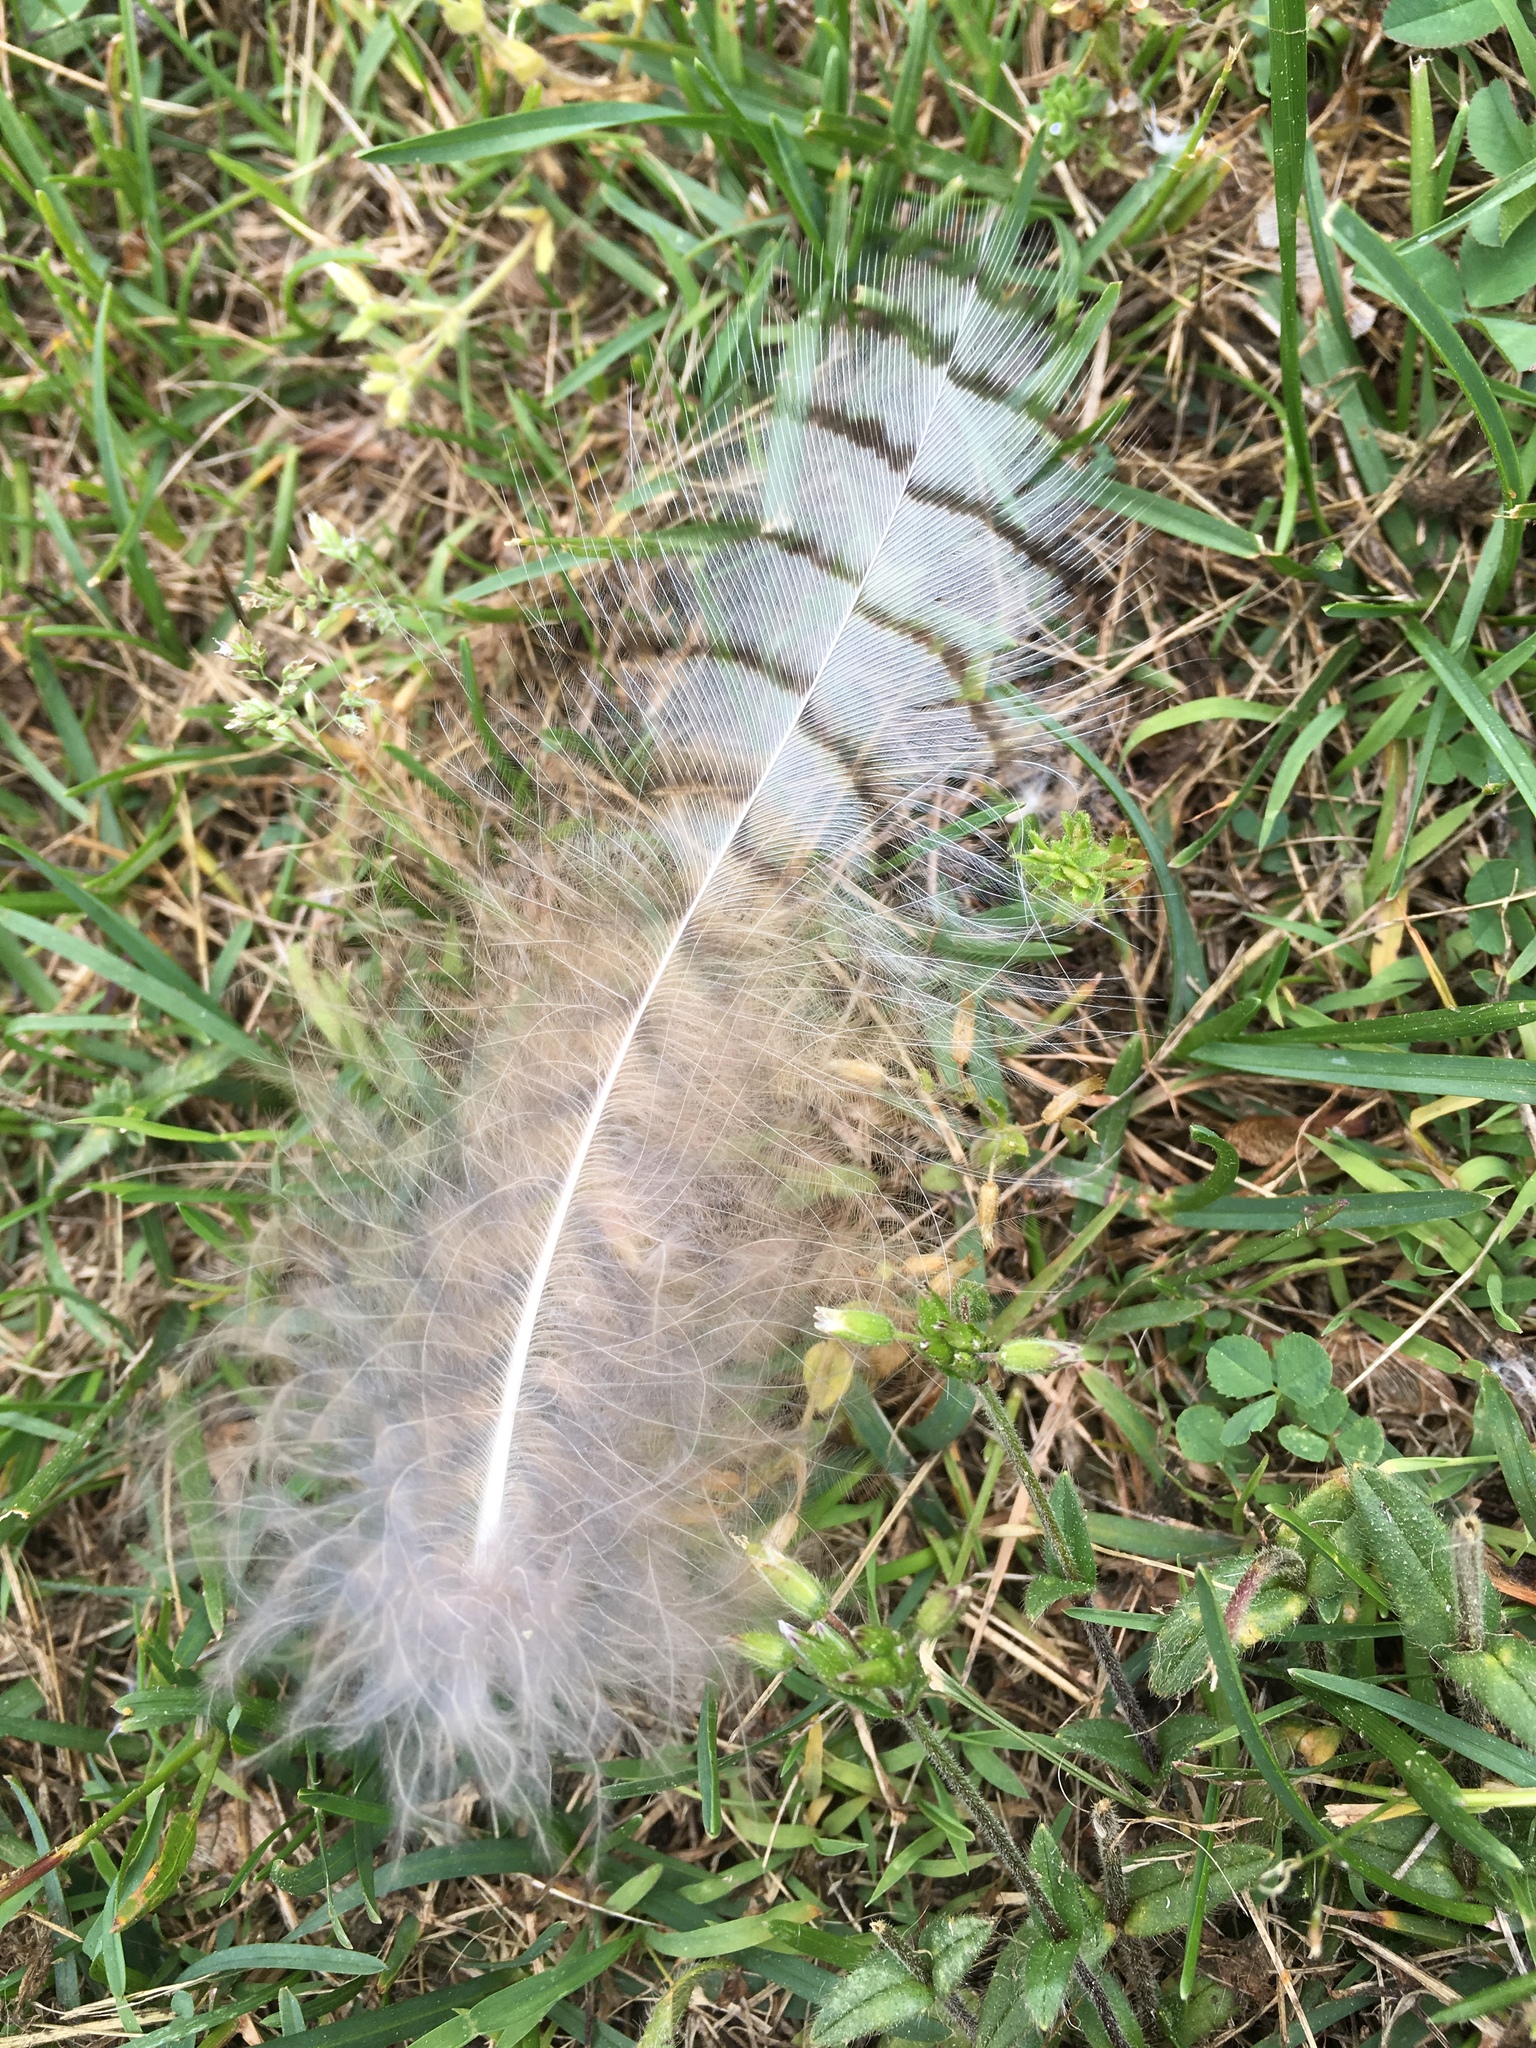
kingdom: Animalia
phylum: Chordata
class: Aves
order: Strigiformes
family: Strigidae
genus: Bubo
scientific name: Bubo virginianus
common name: Great horned owl
